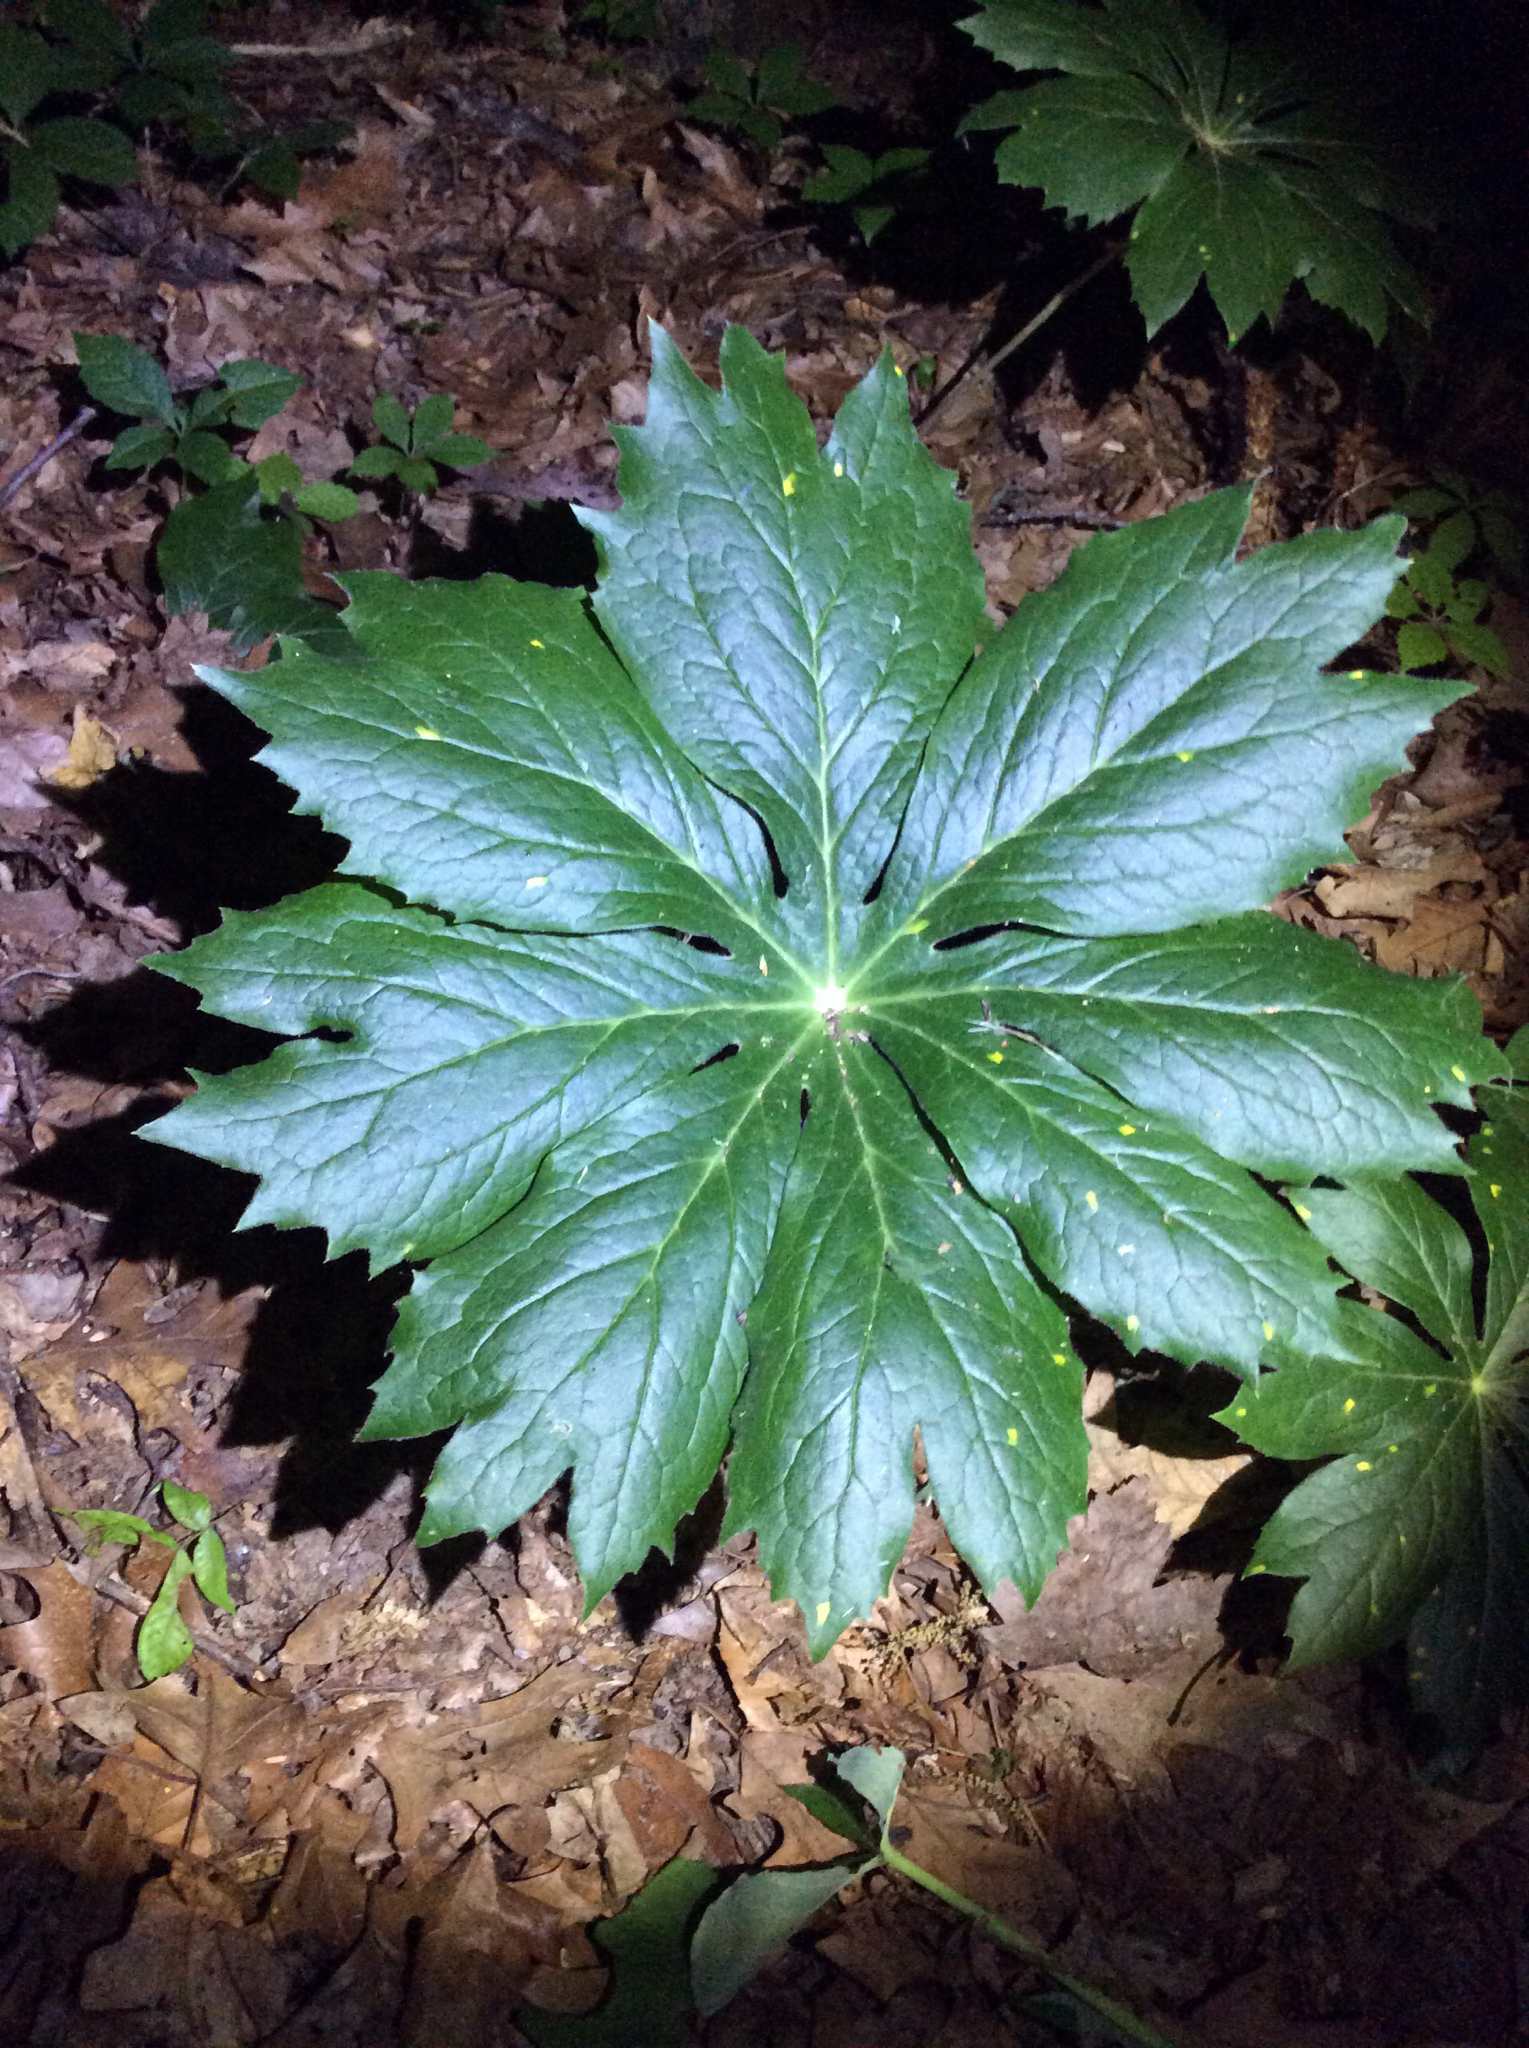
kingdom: Plantae
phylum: Tracheophyta
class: Magnoliopsida
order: Ranunculales
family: Berberidaceae
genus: Podophyllum
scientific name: Podophyllum peltatum
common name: Wild mandrake
